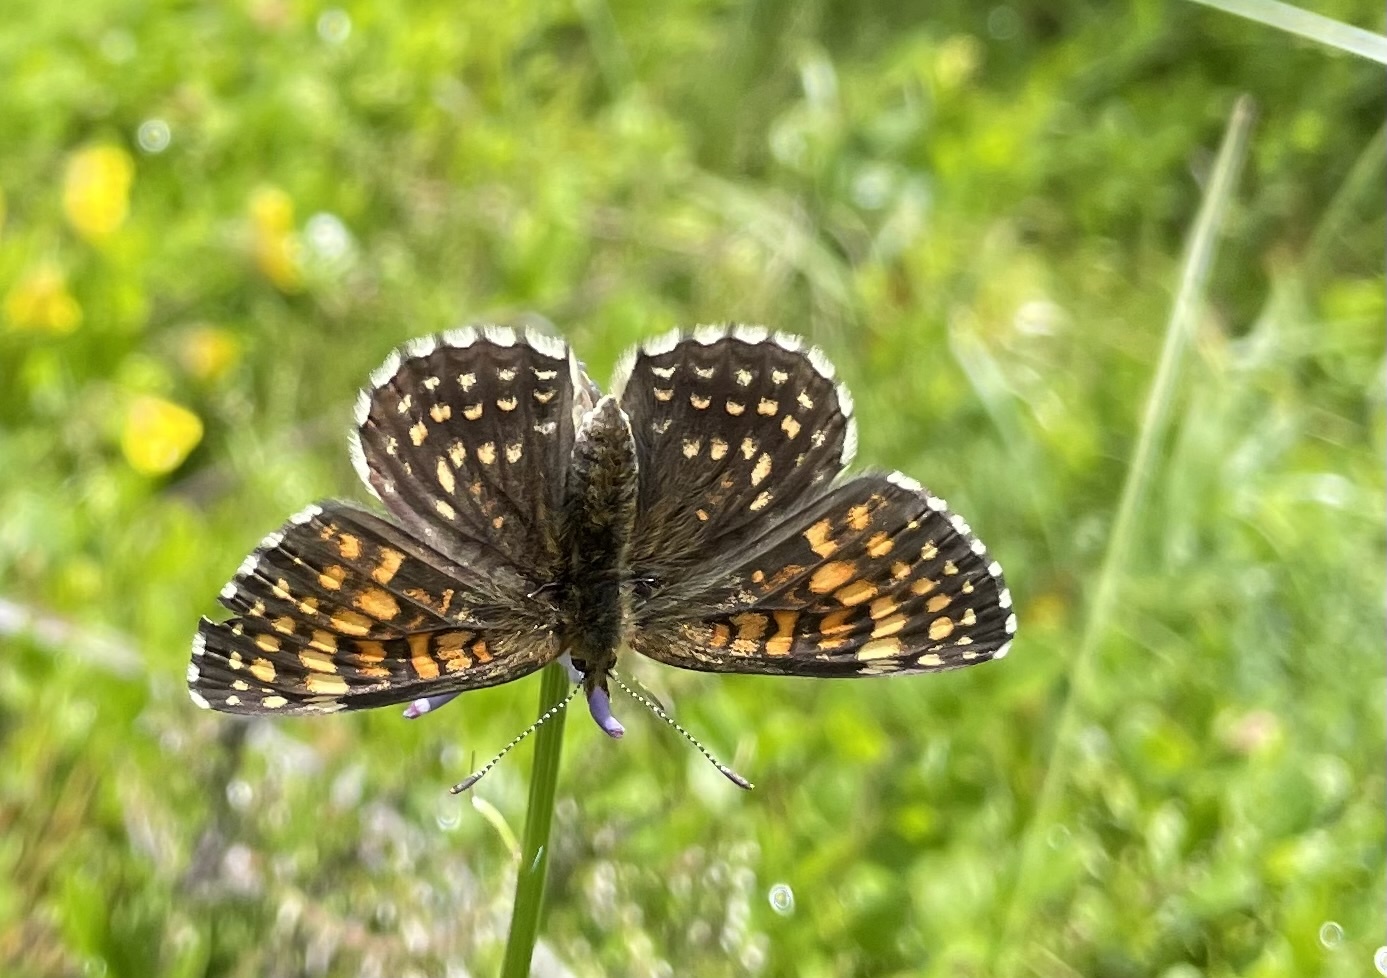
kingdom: Animalia
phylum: Arthropoda
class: Insecta
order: Lepidoptera
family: Nymphalidae
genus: Melitaea
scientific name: Melitaea diamina
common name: False heath fritillary
